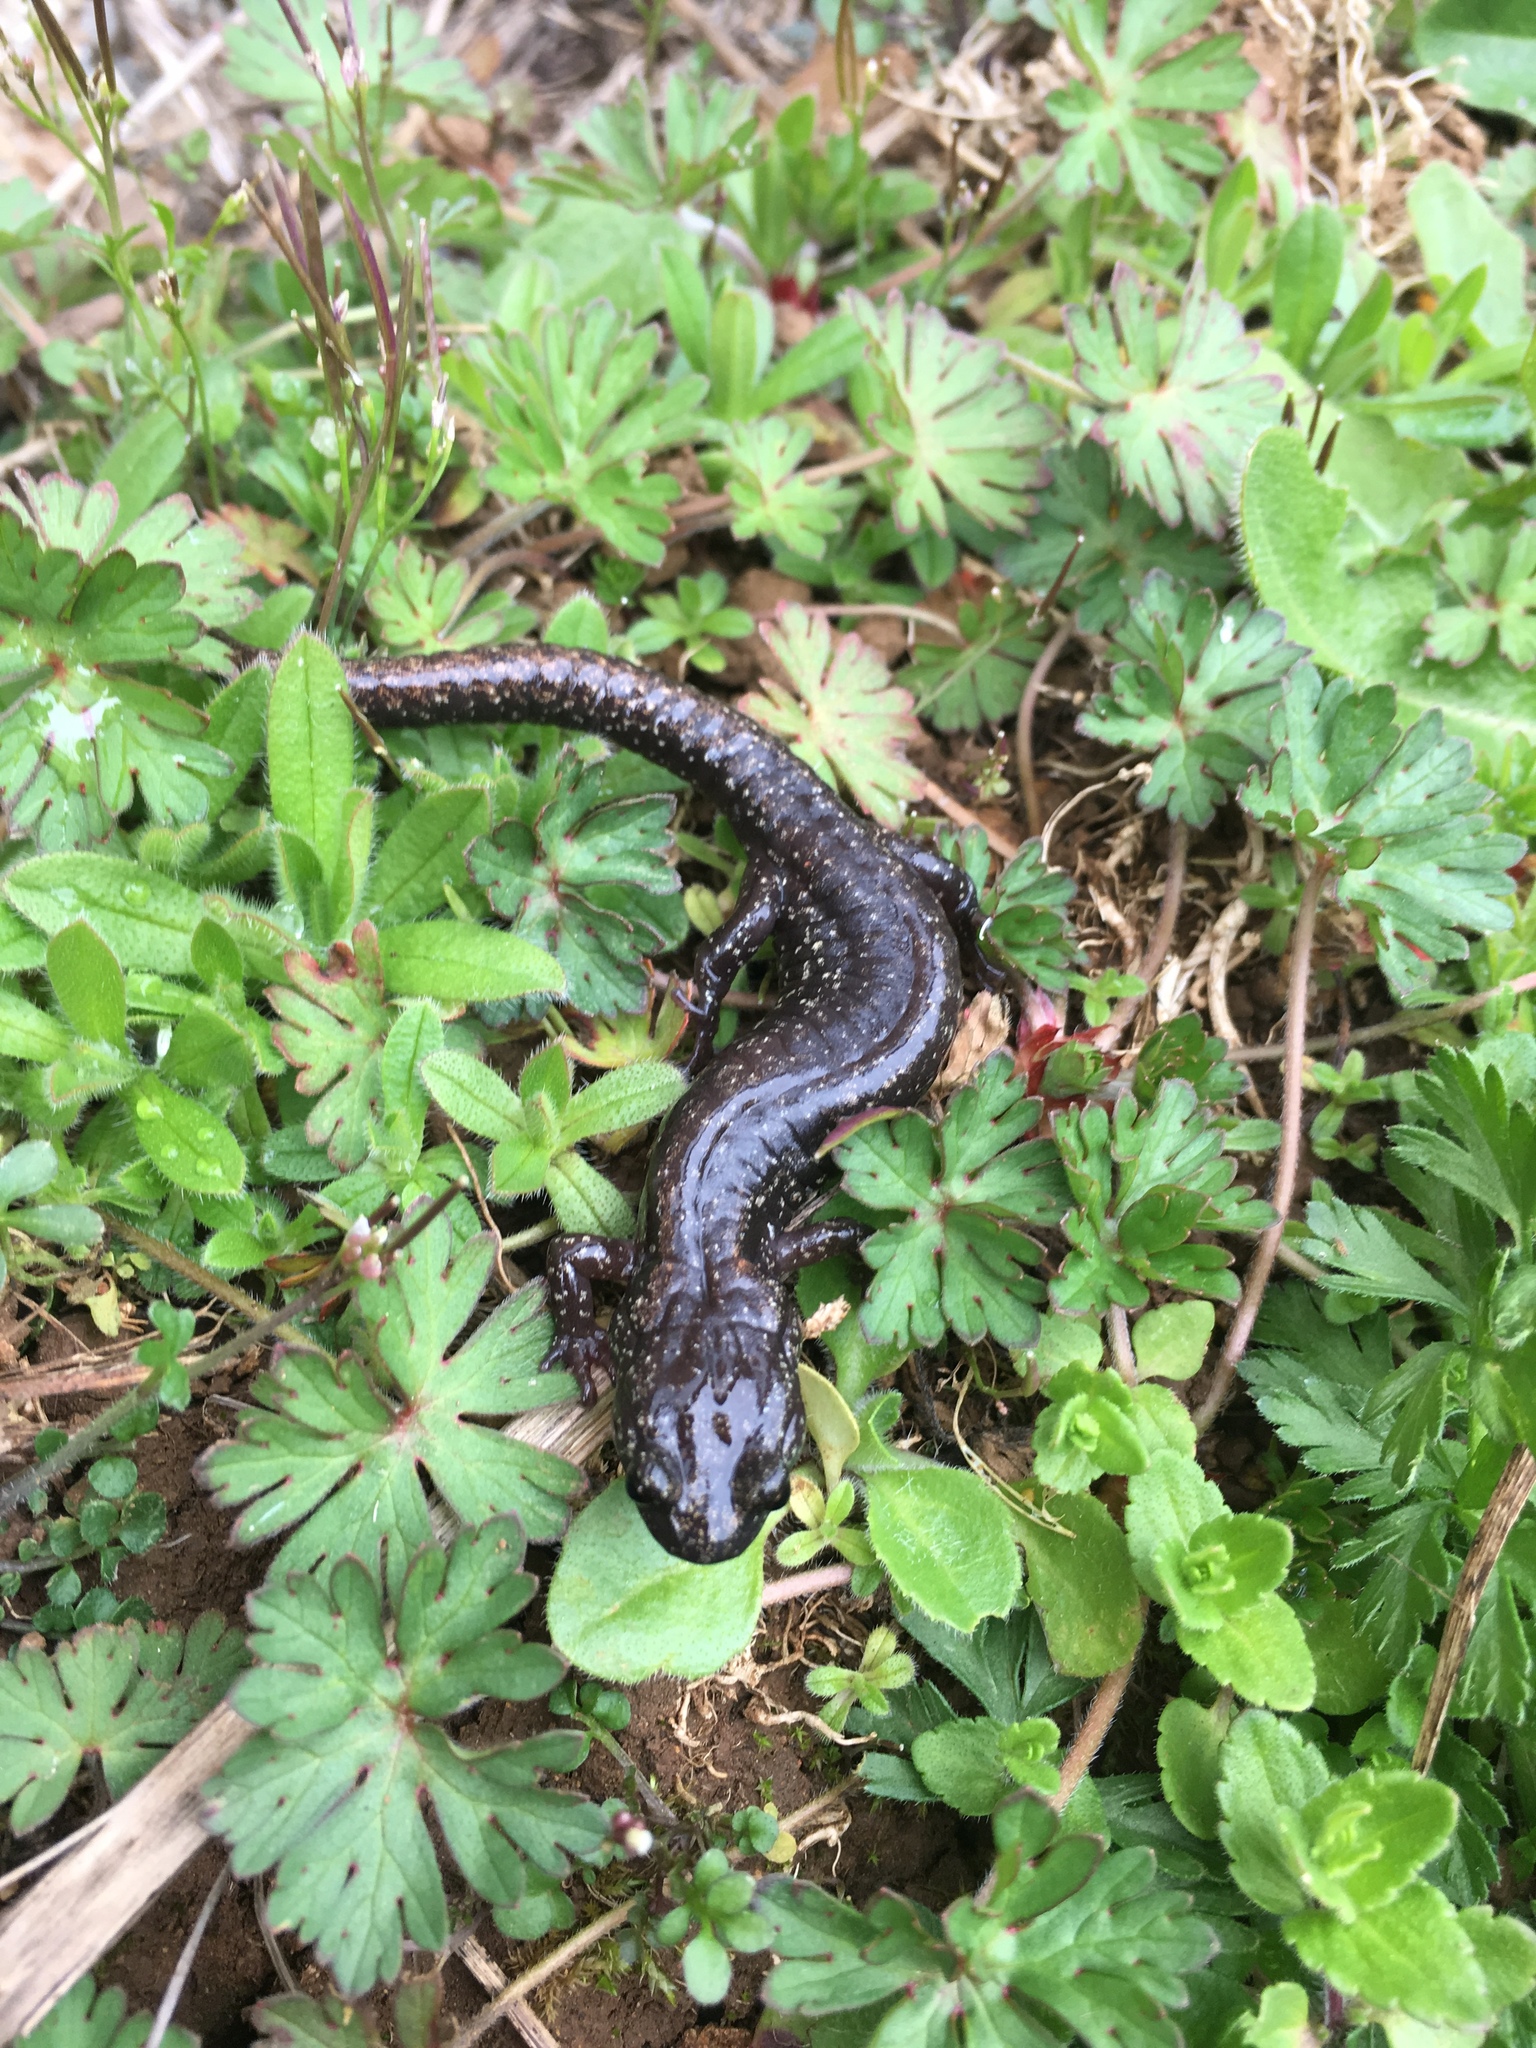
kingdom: Animalia
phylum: Chordata
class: Amphibia
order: Caudata
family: Plethodontidae
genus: Aneides
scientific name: Aneides ferreus
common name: Clouded salamander
